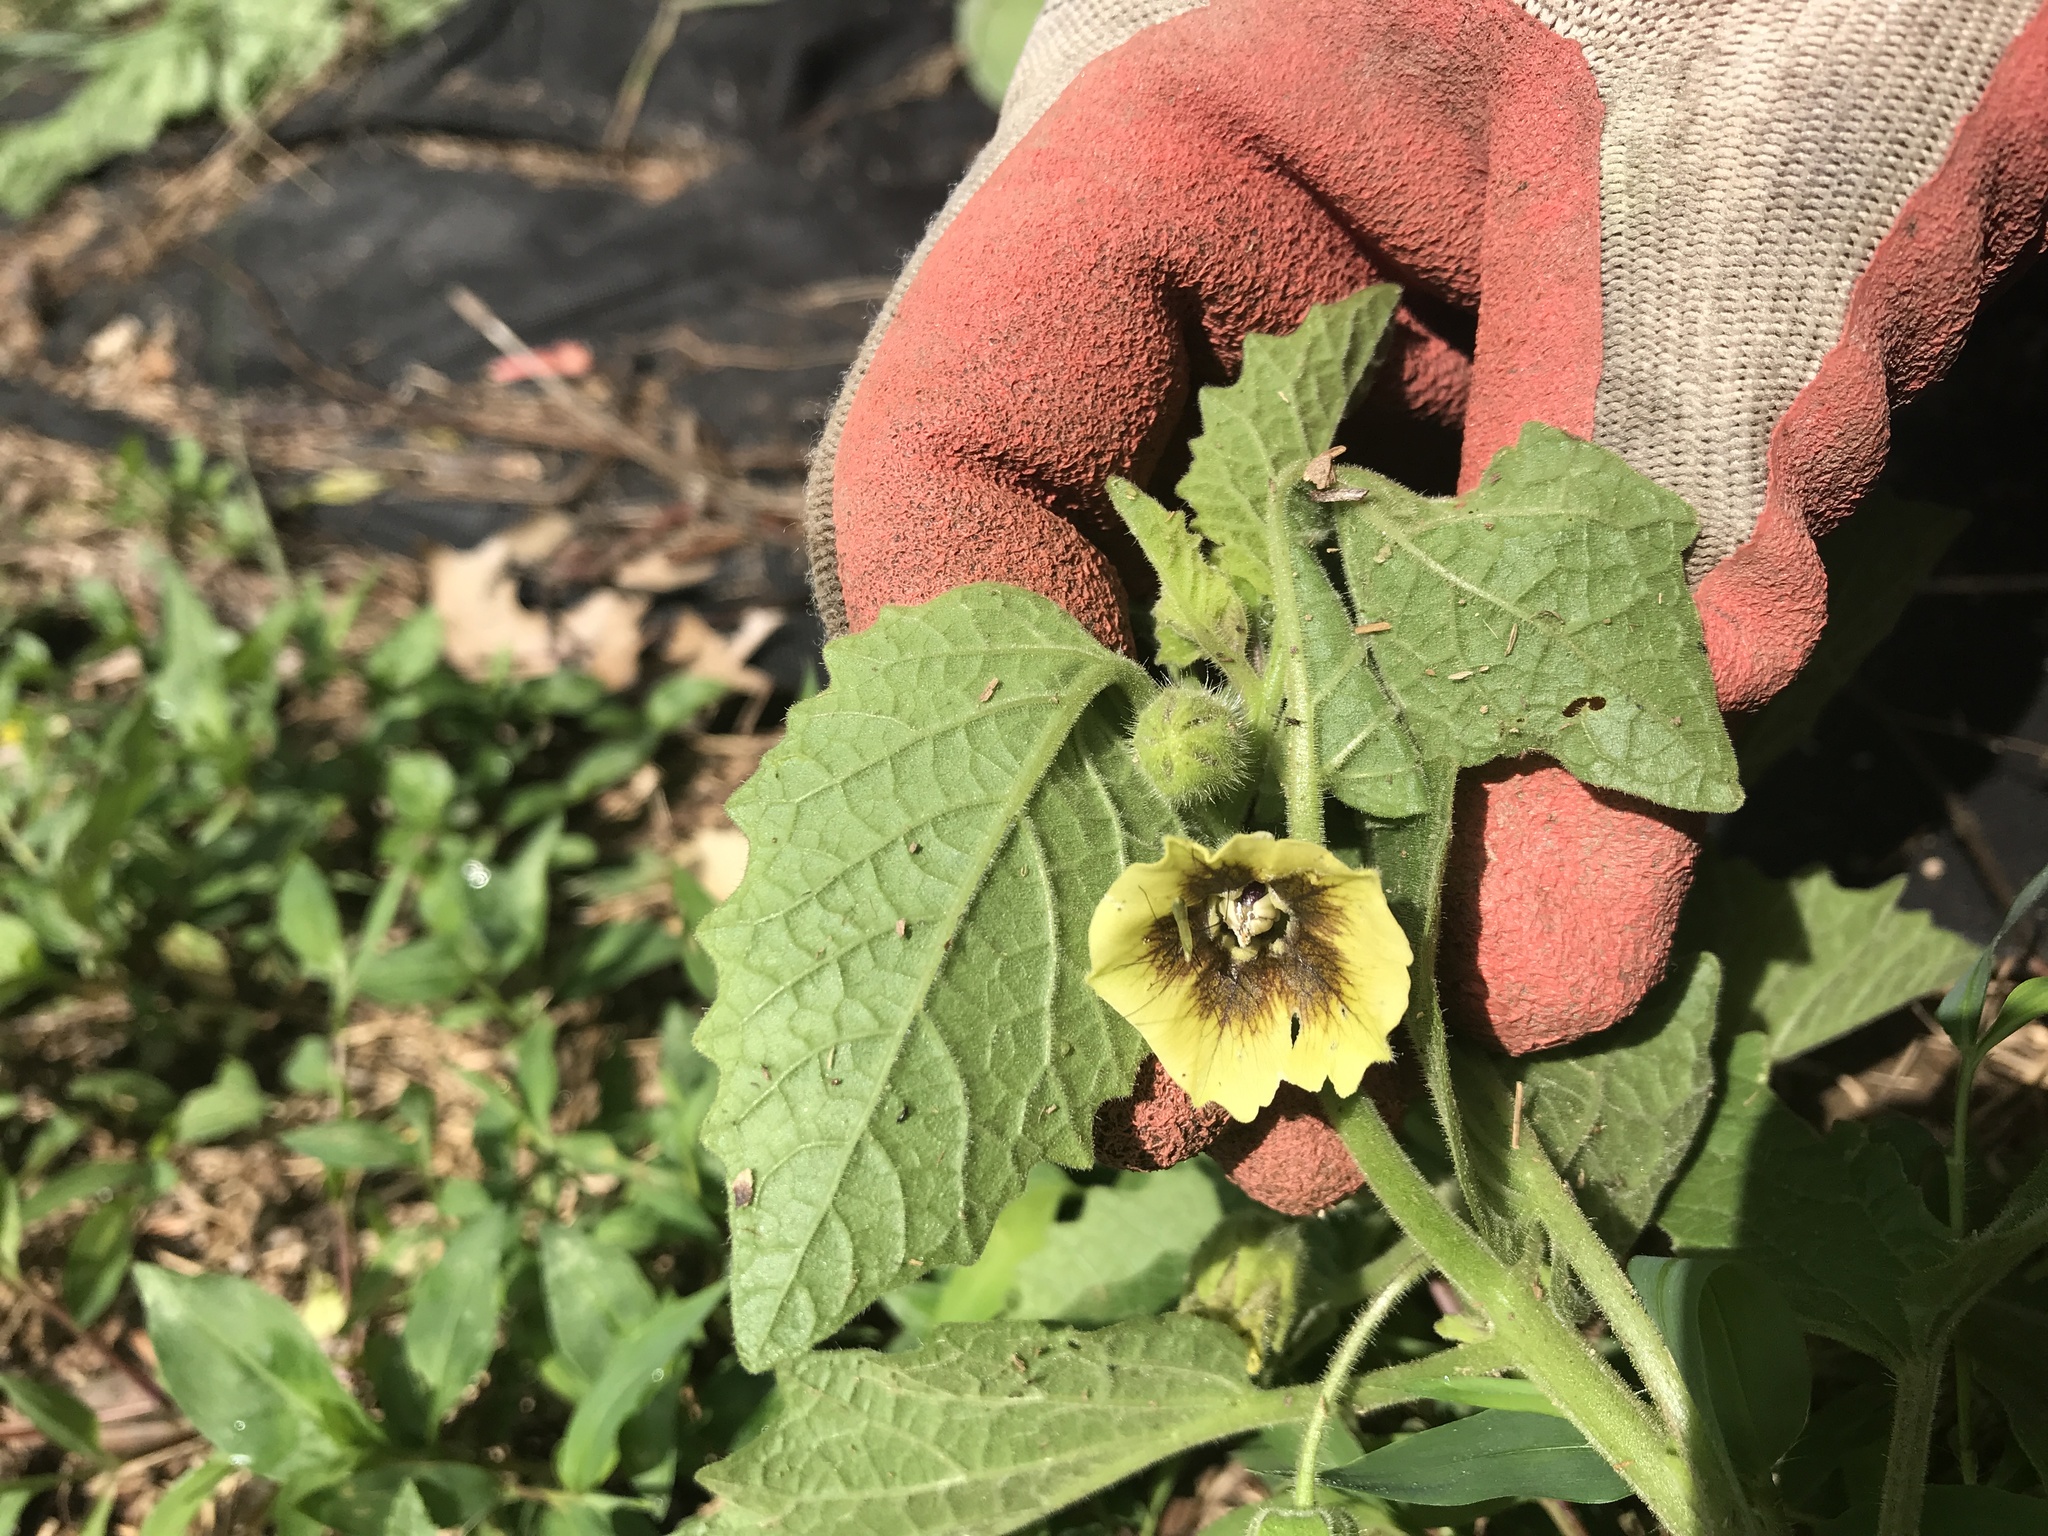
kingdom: Plantae
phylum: Tracheophyta
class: Magnoliopsida
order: Solanales
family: Solanaceae
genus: Physalis
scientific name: Physalis heterophylla
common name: Clammy ground-cherry
